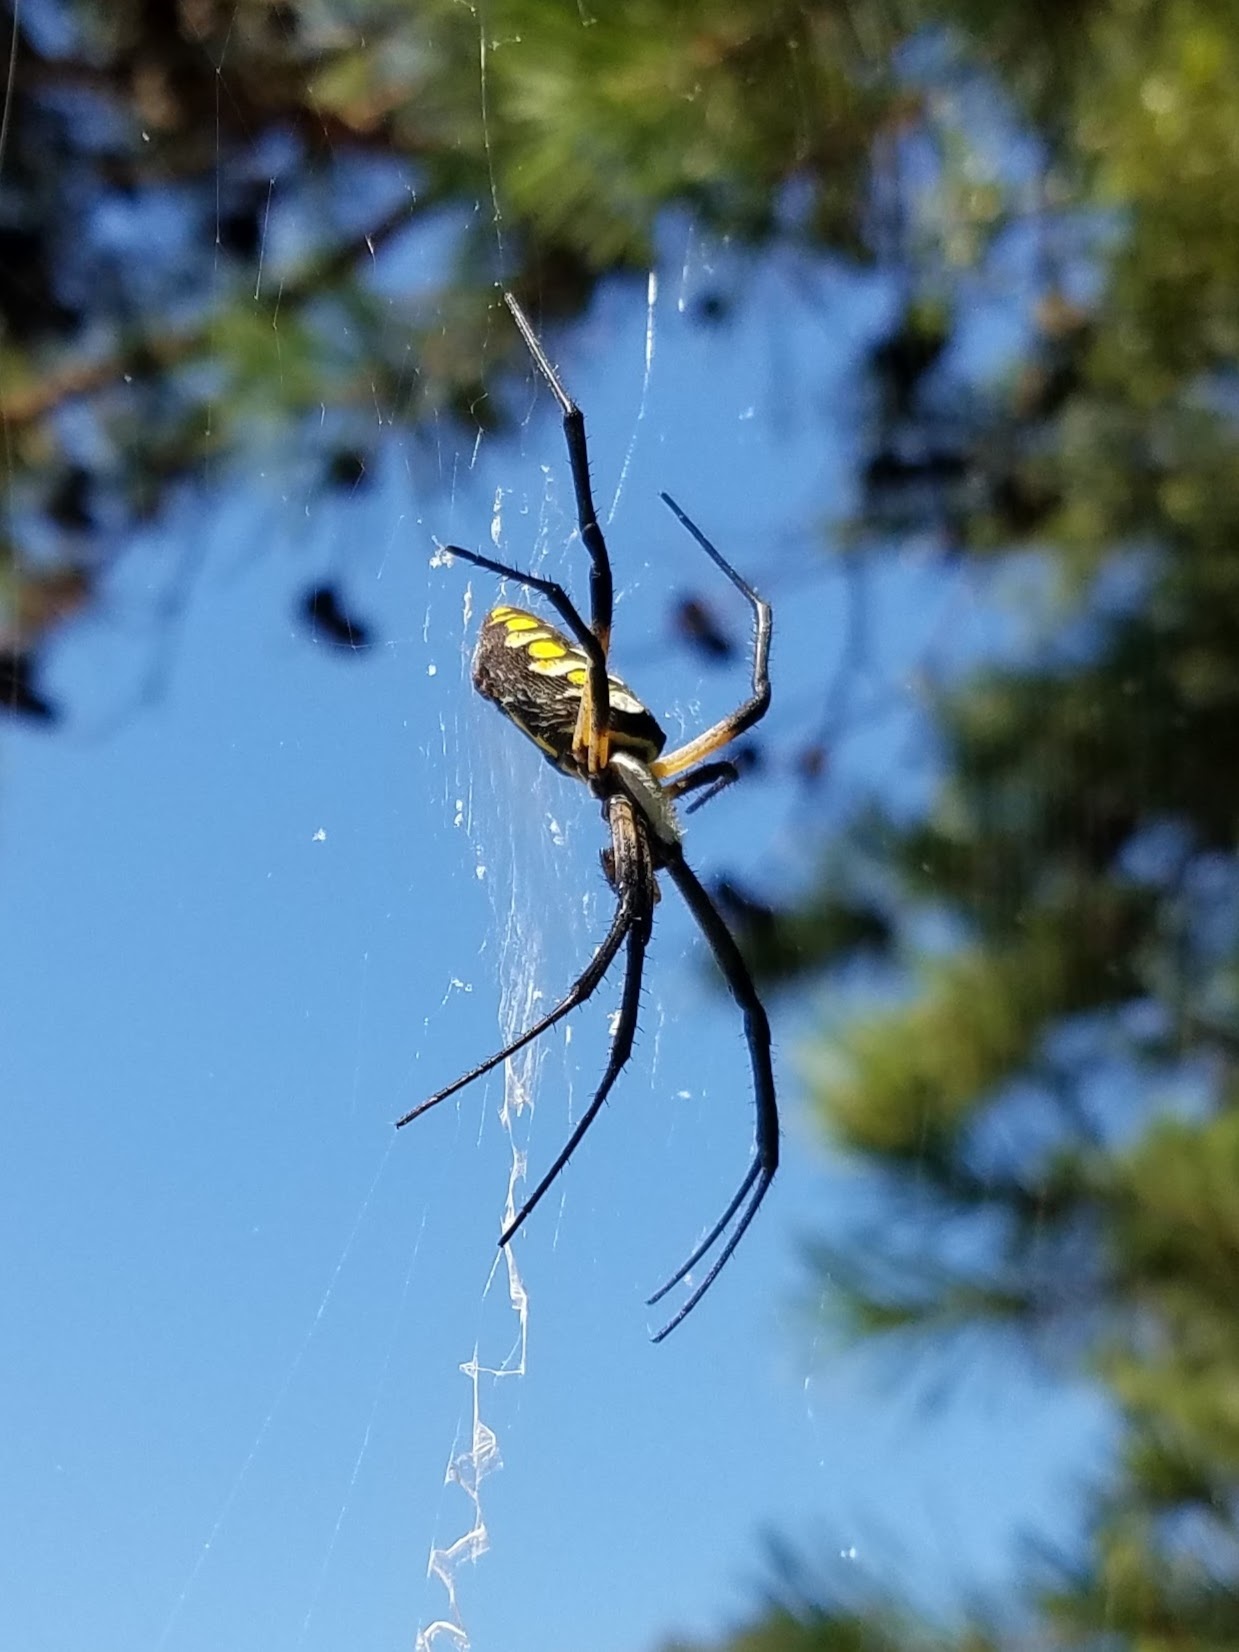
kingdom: Animalia
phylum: Arthropoda
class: Arachnida
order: Araneae
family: Araneidae
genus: Argiope
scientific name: Argiope aurantia
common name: Orb weavers
